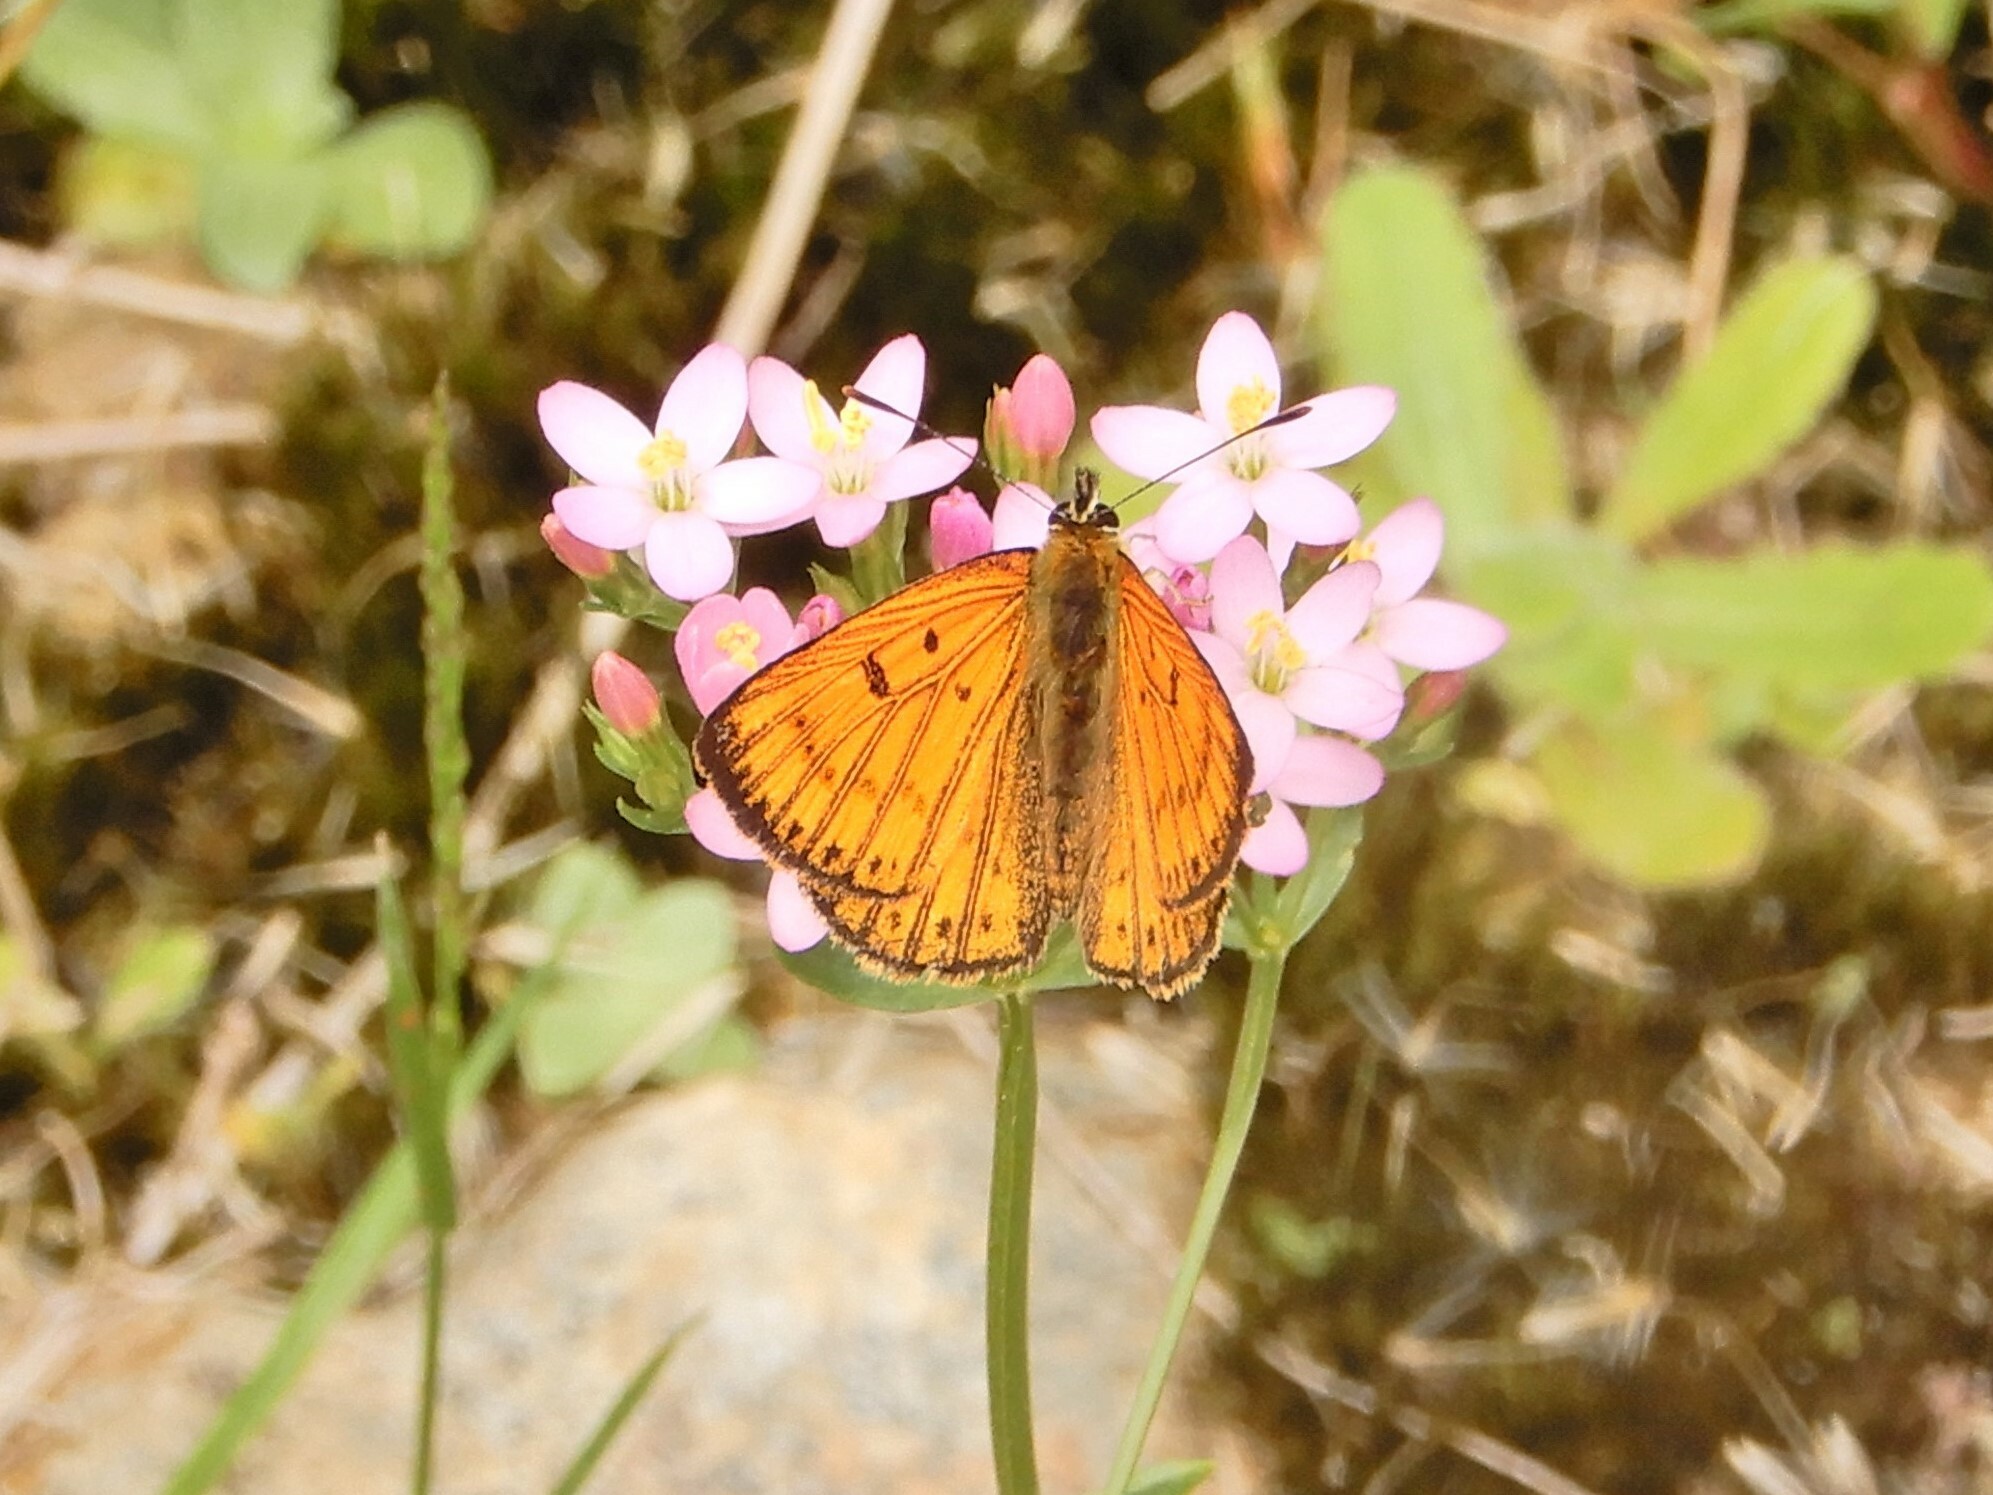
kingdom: Animalia
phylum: Arthropoda
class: Insecta
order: Lepidoptera
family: Lycaenidae
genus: Lycaena
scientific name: Lycaena salustius
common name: North island coastal copper
